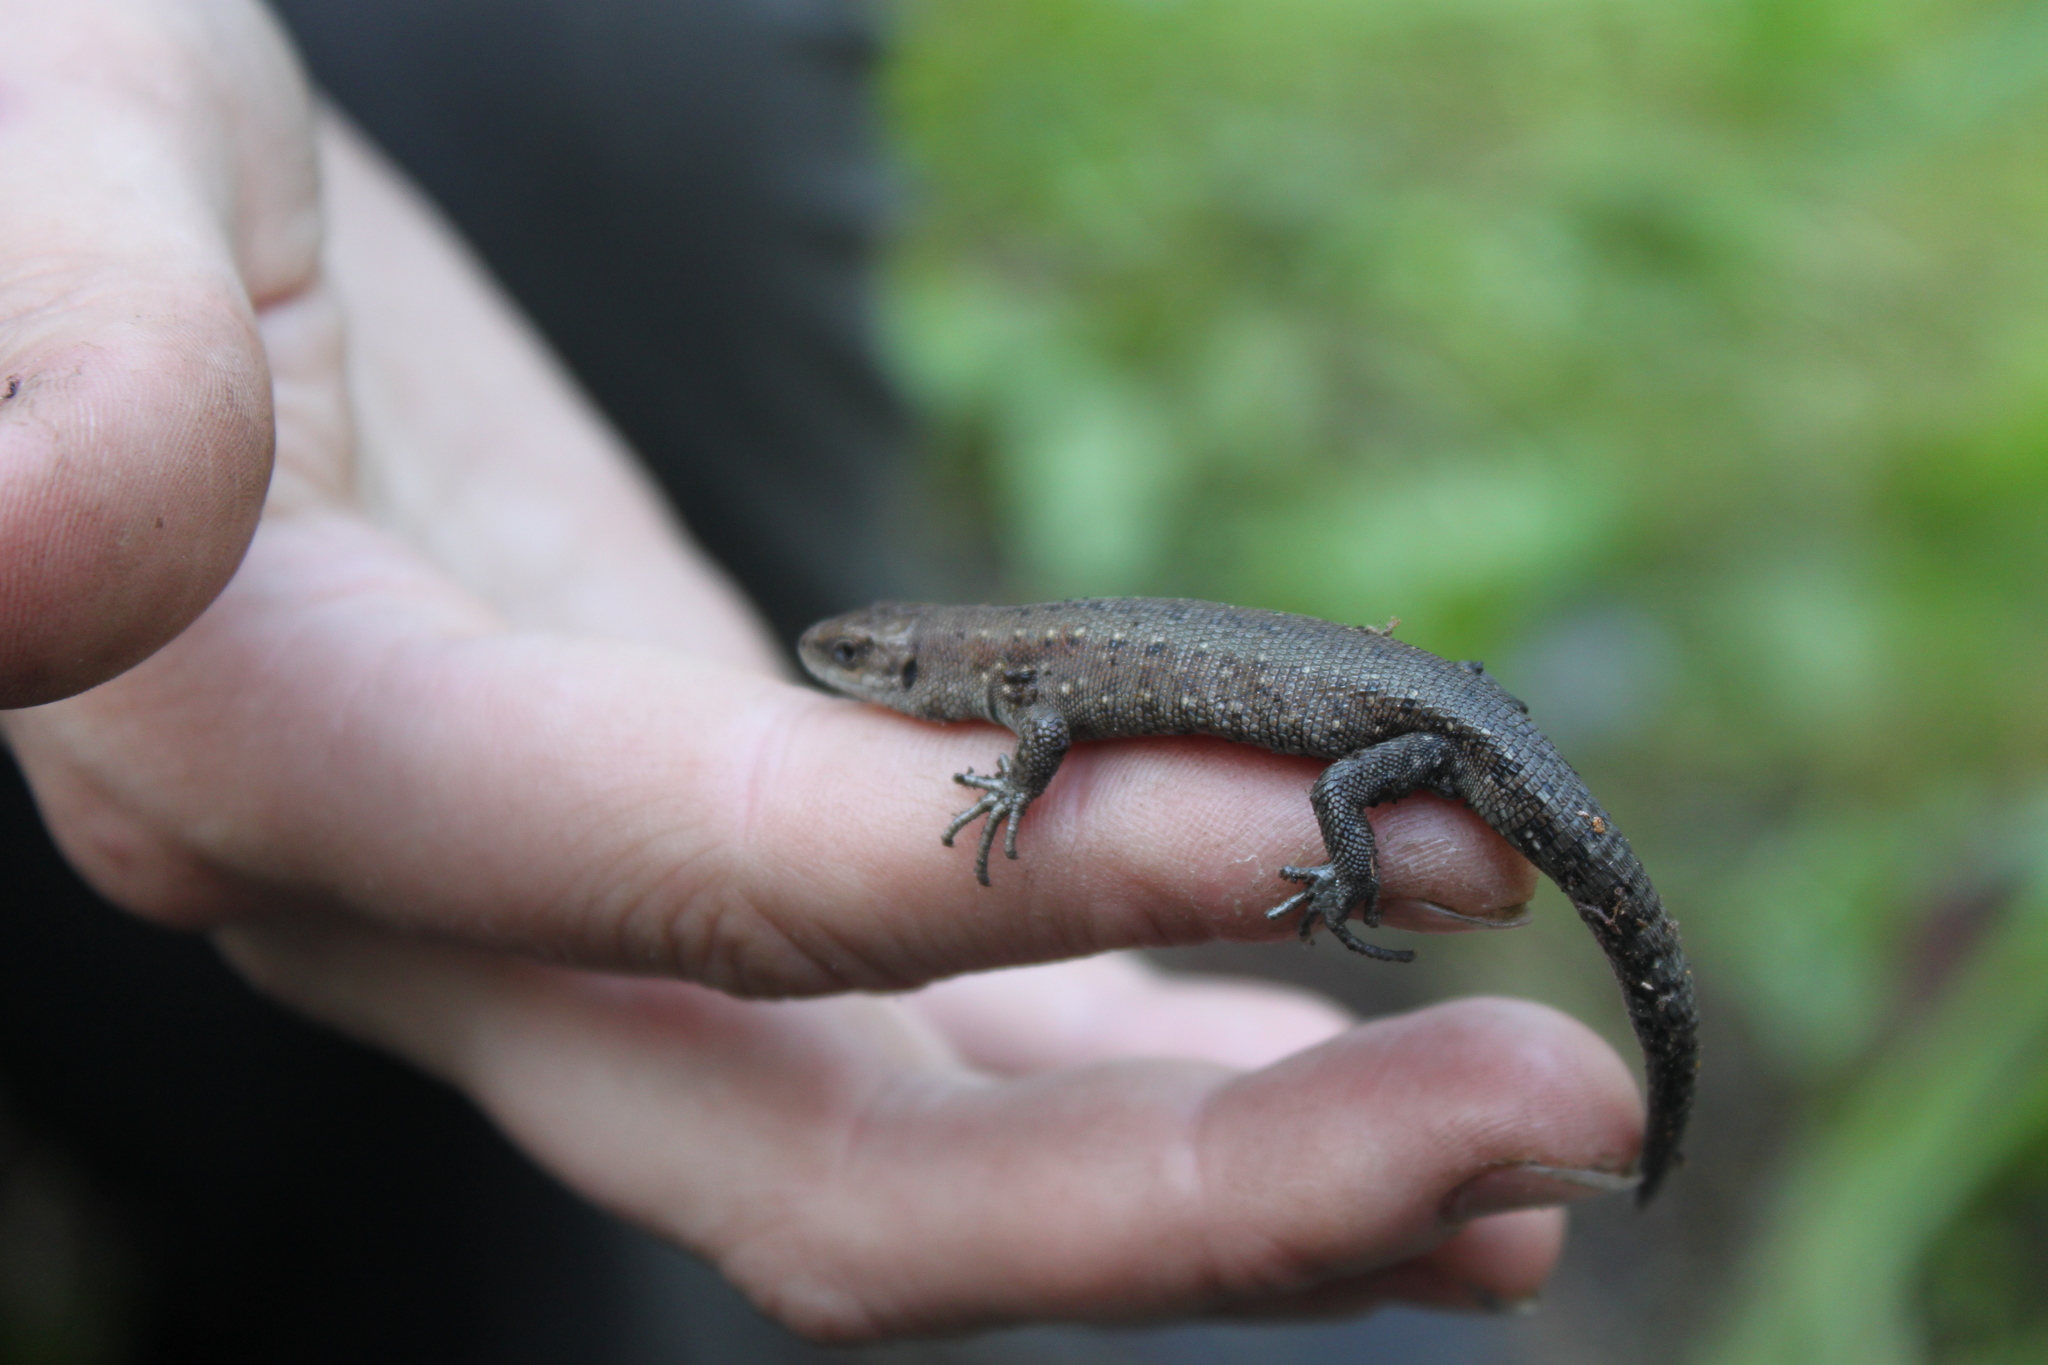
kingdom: Animalia
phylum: Chordata
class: Squamata
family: Lacertidae
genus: Zootoca
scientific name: Zootoca vivipara
